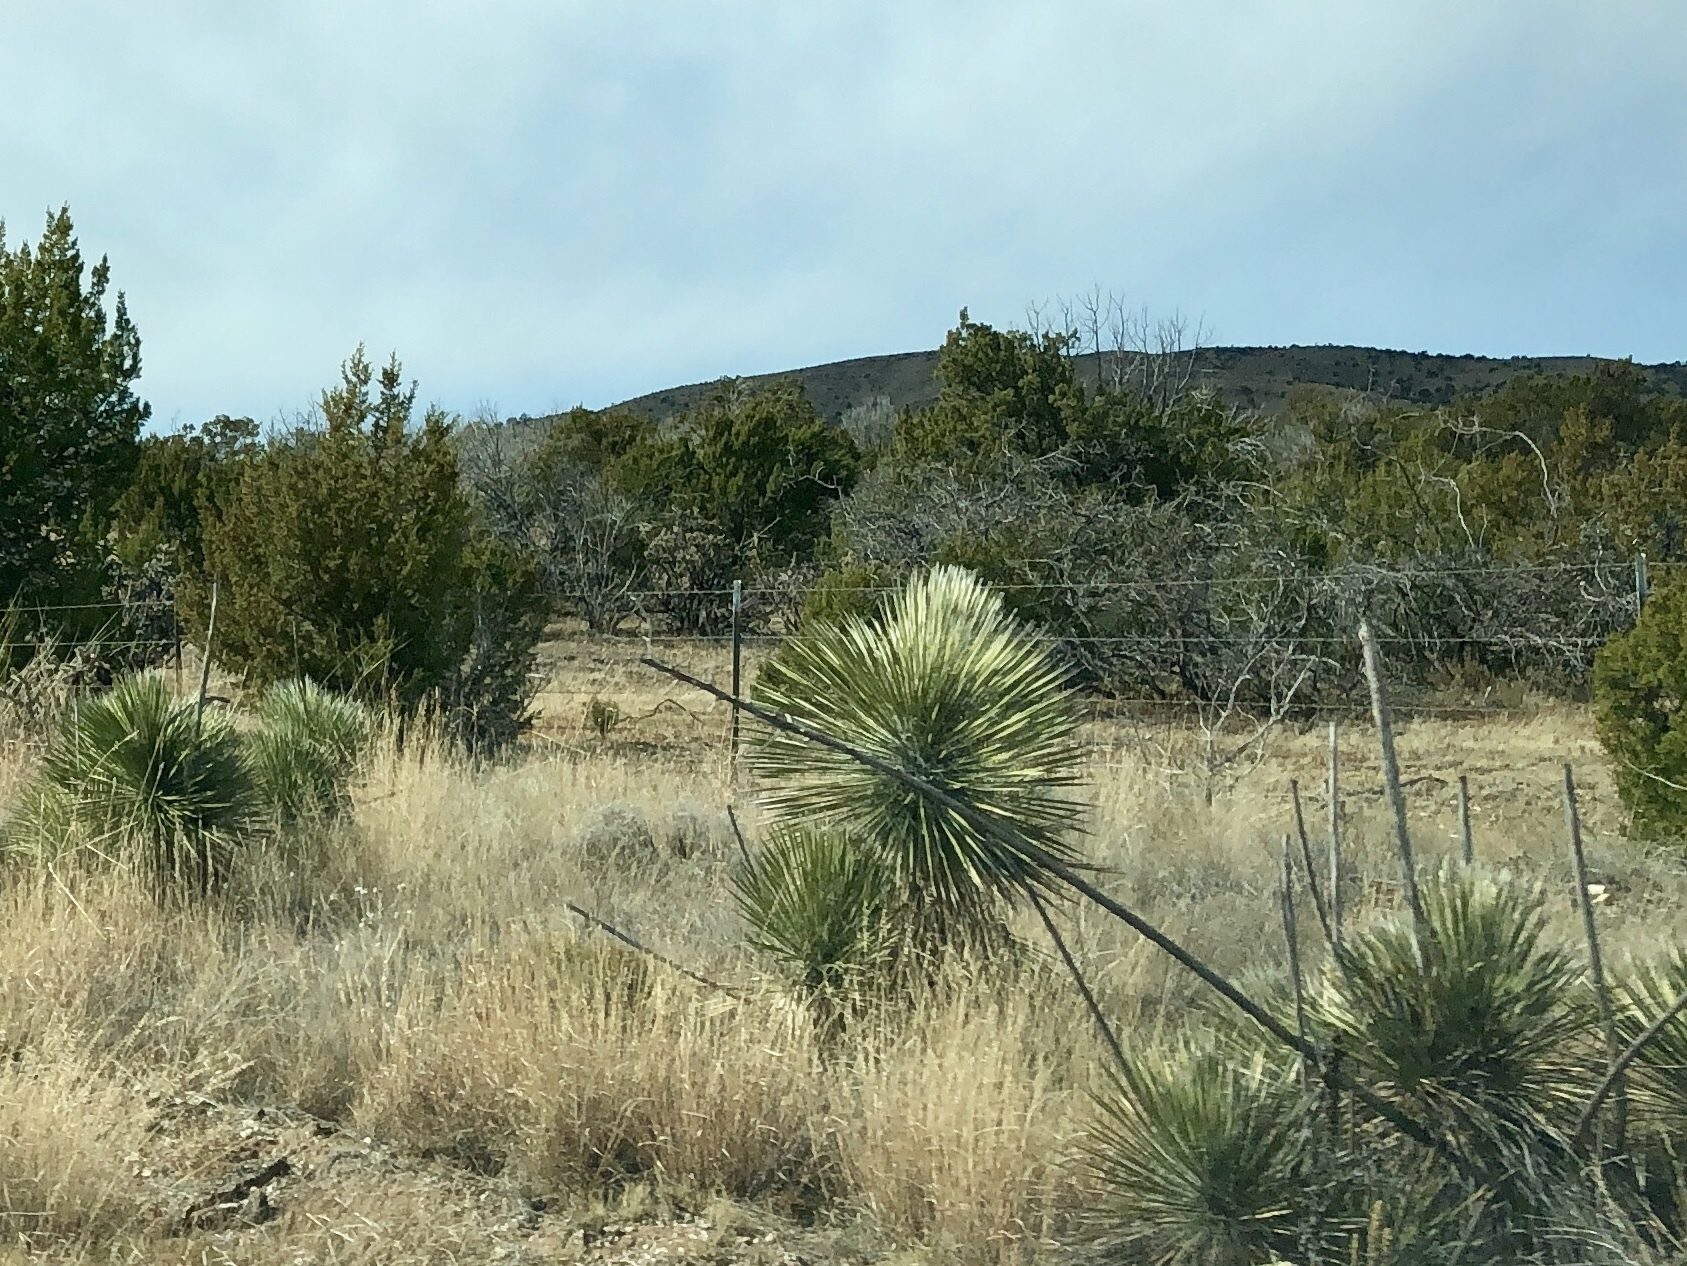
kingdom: Plantae
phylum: Tracheophyta
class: Liliopsida
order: Asparagales
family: Asparagaceae
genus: Yucca
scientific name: Yucca elata
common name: Palmella
